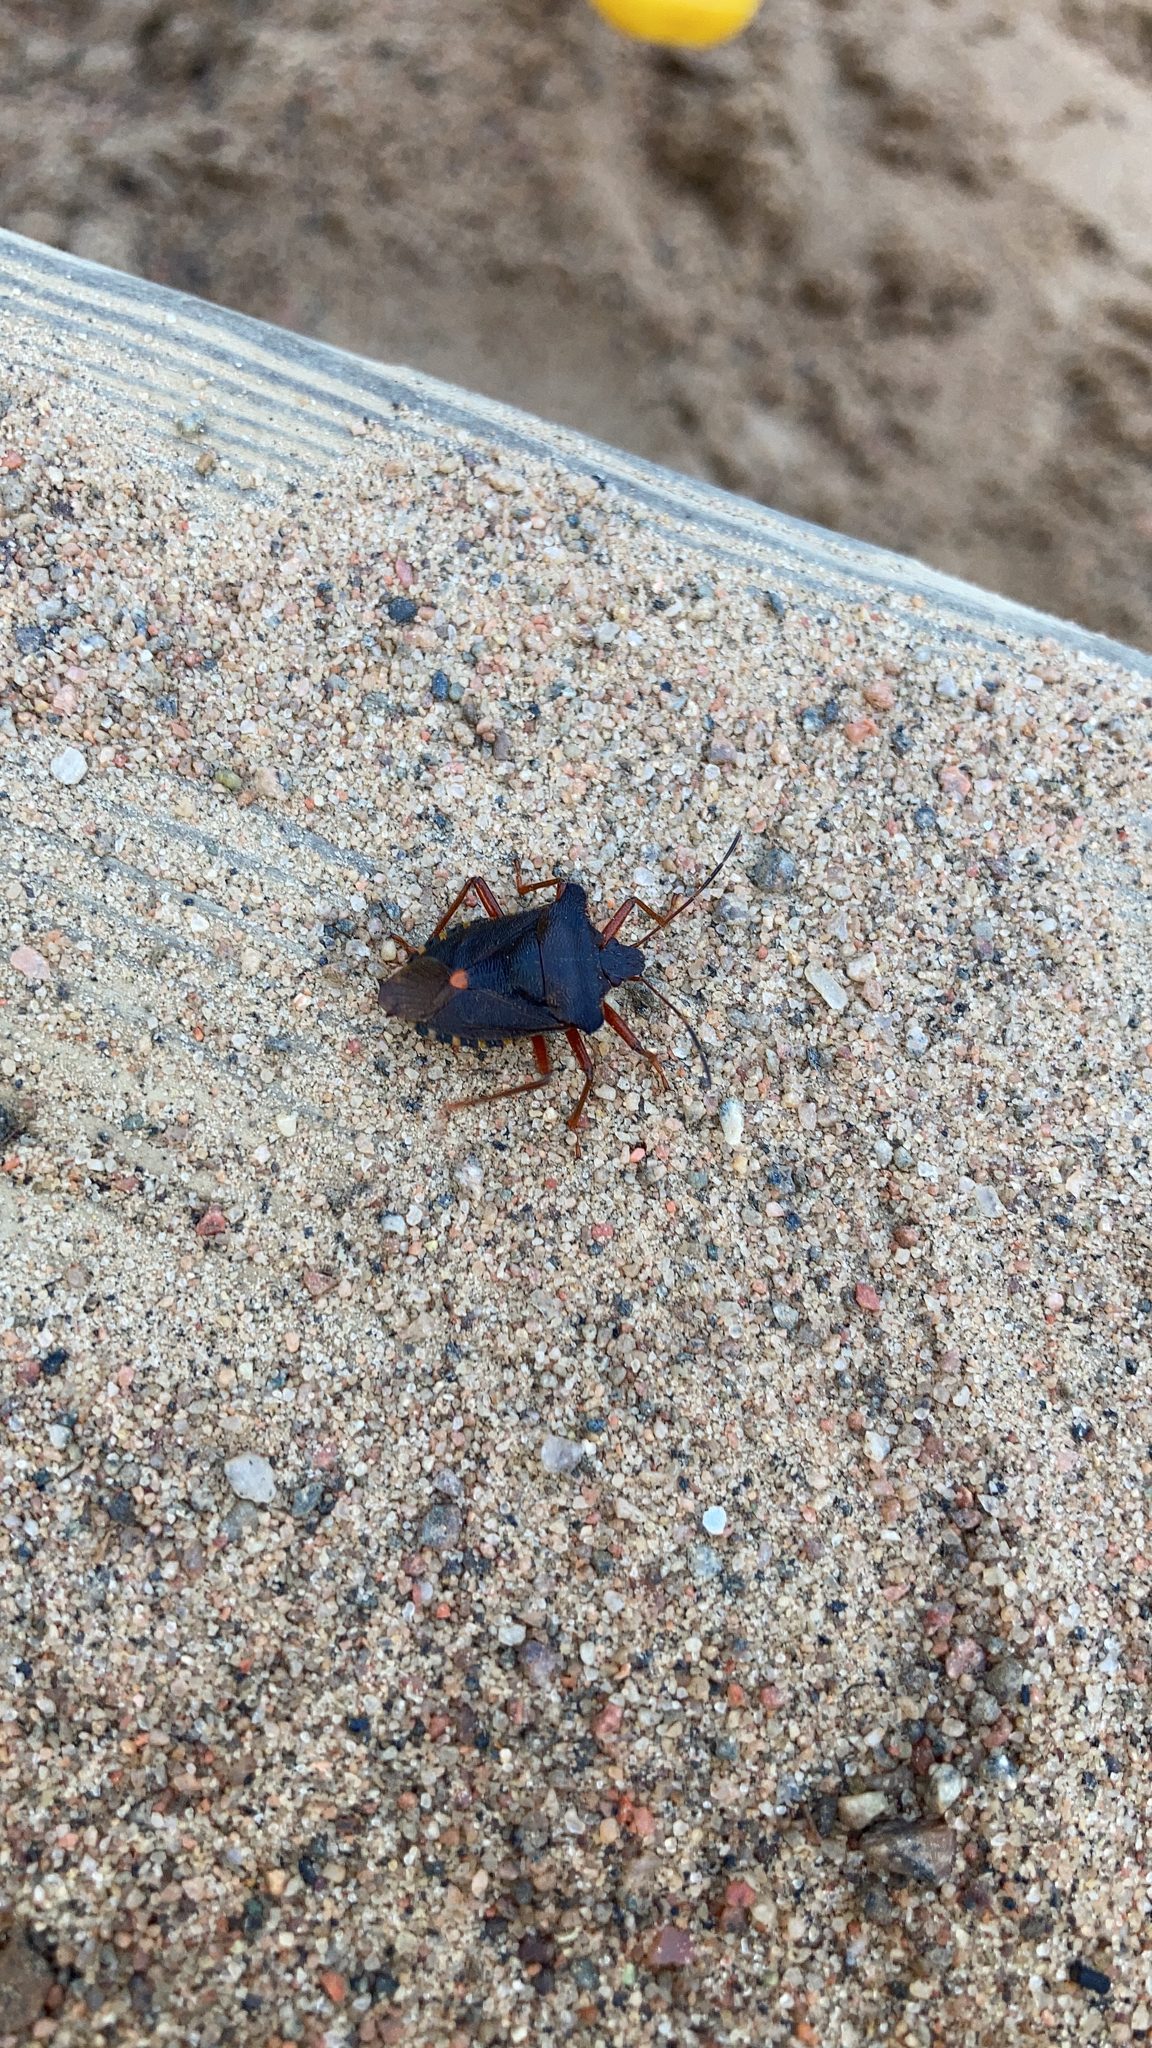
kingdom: Animalia
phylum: Arthropoda
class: Insecta
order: Hemiptera
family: Pentatomidae
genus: Pentatoma
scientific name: Pentatoma rufipes
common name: Forest bug
